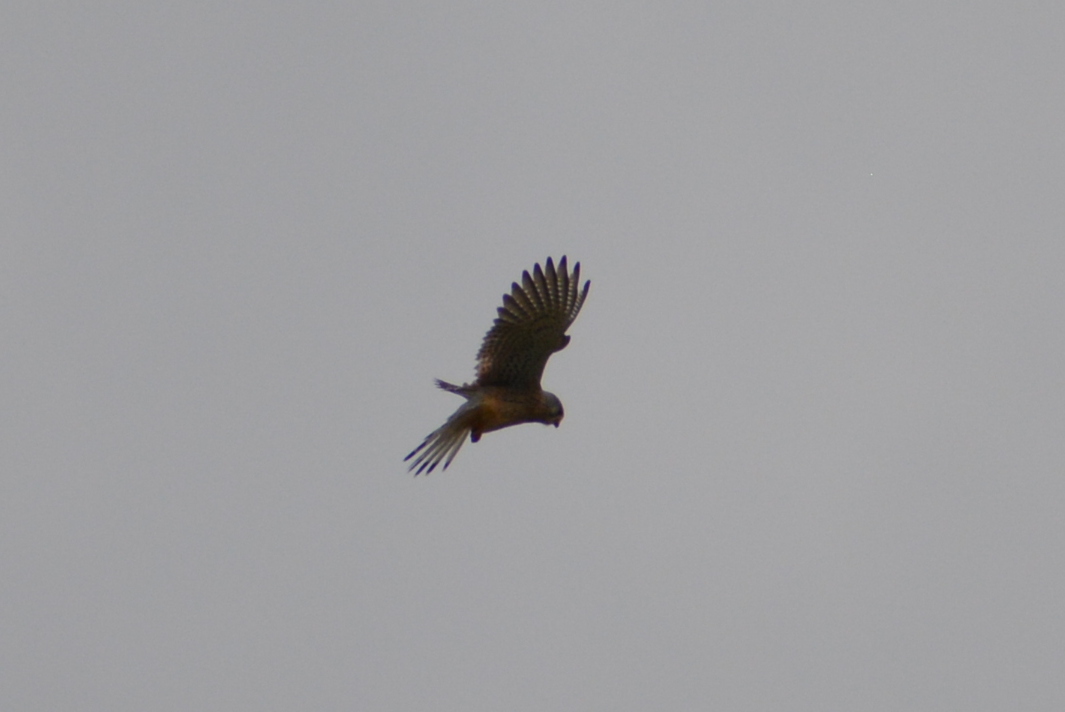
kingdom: Animalia
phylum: Chordata
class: Aves
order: Falconiformes
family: Falconidae
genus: Falco
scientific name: Falco tinnunculus
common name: Common kestrel
